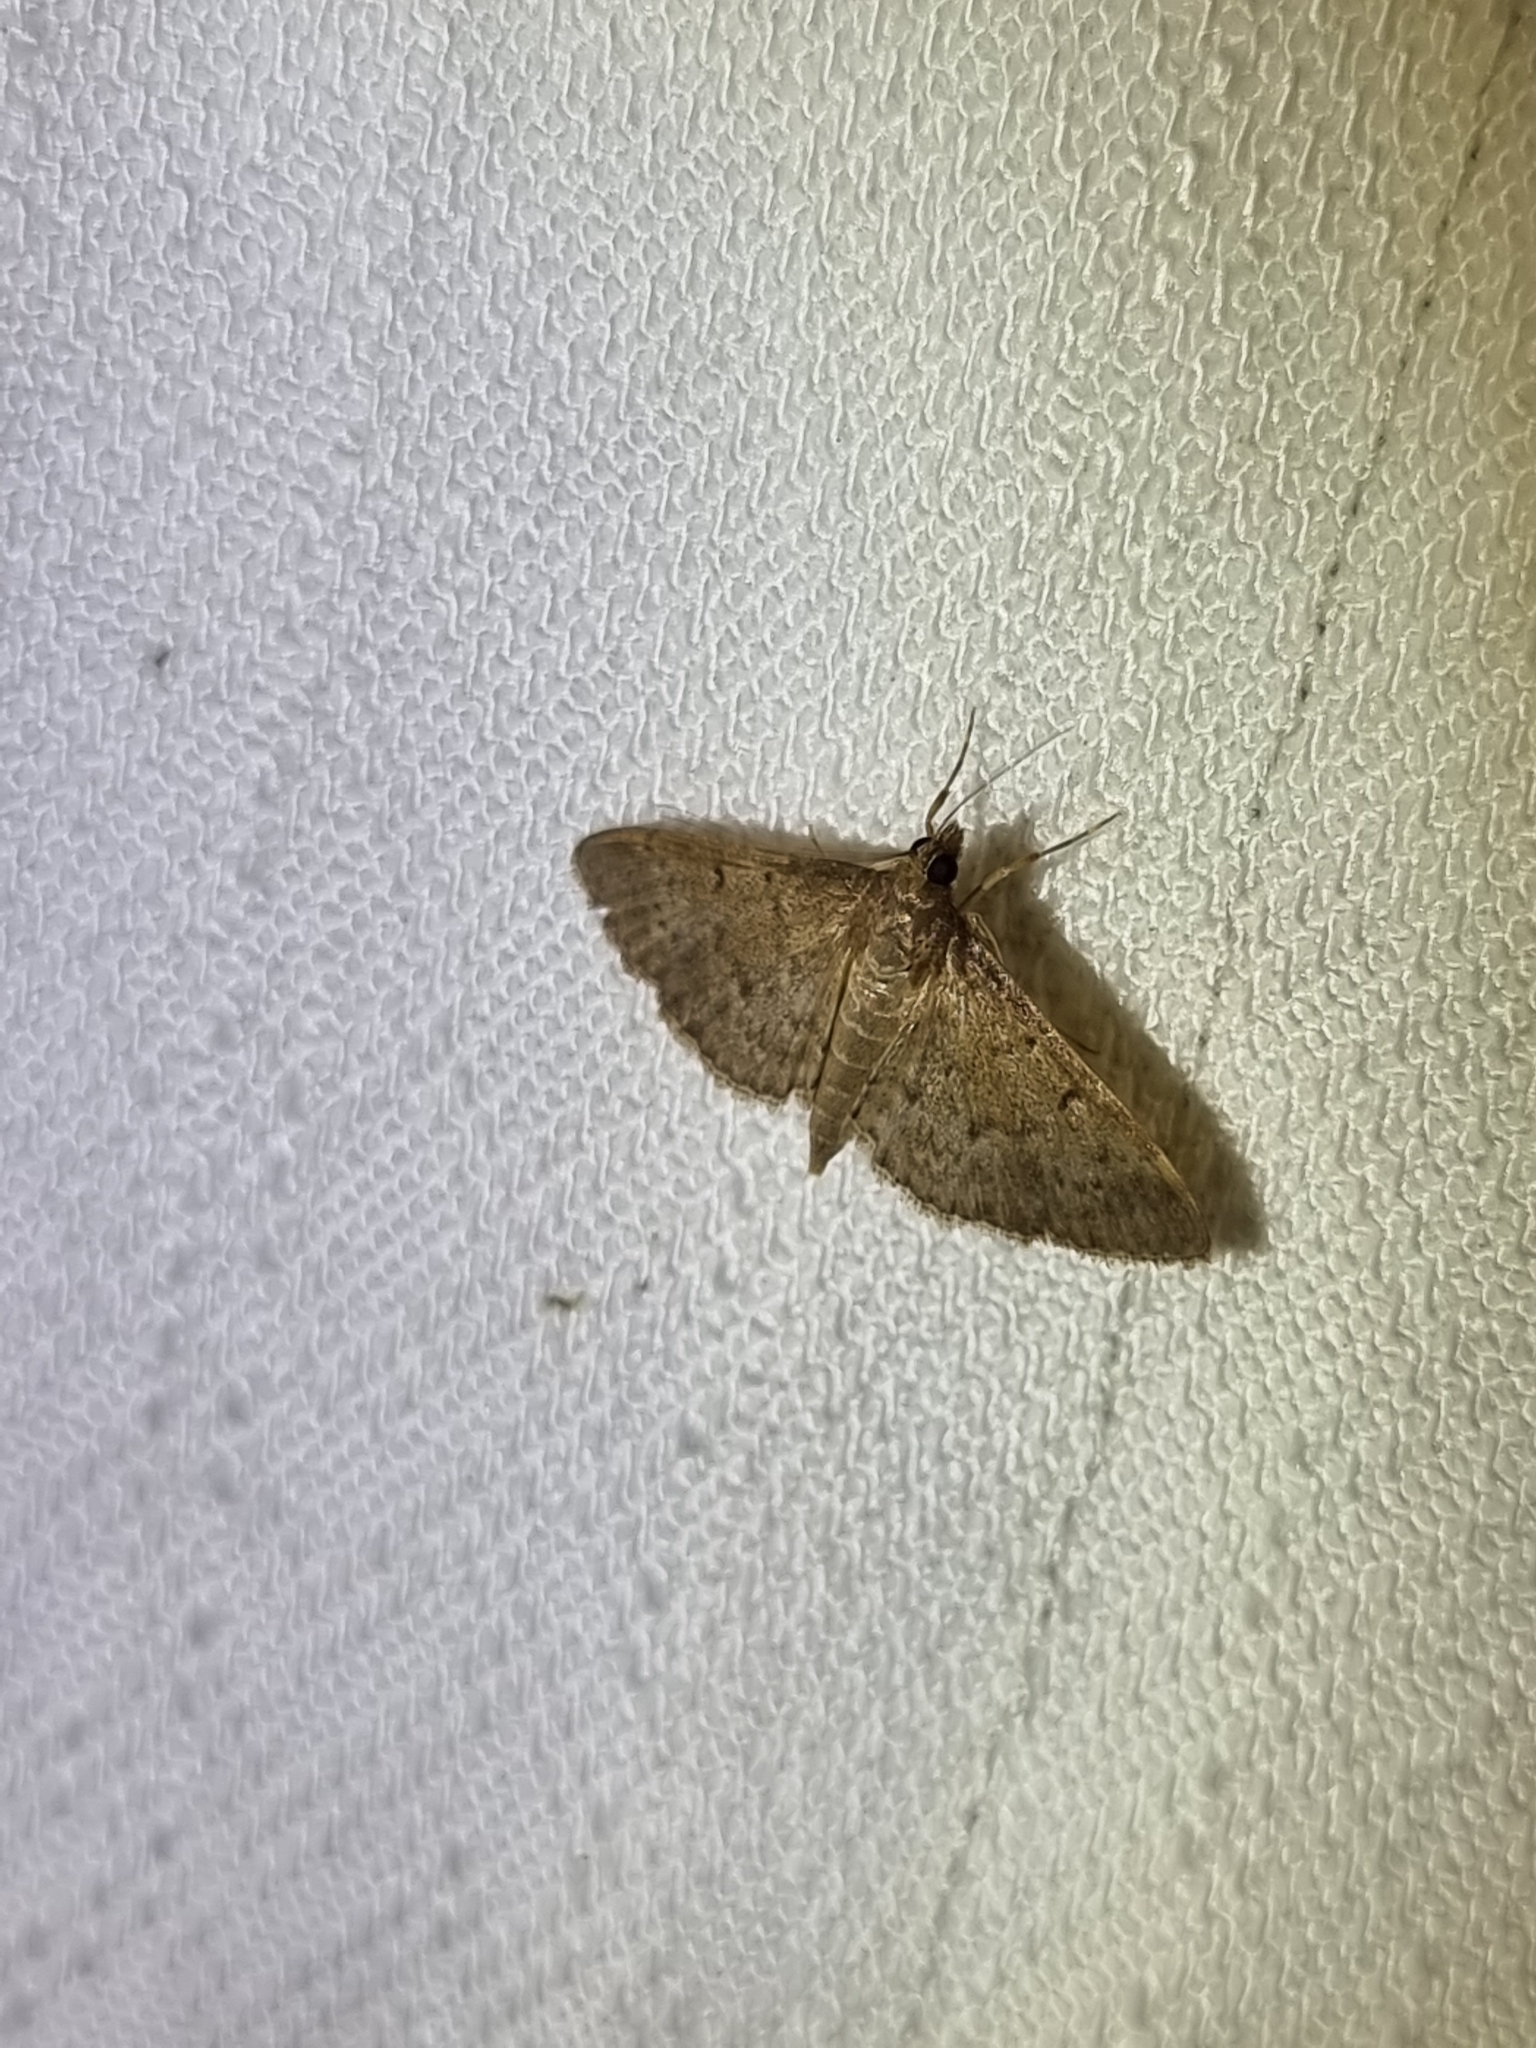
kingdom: Animalia
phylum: Arthropoda
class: Insecta
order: Lepidoptera
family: Crambidae
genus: Herpetogramma
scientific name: Herpetogramma licarsisalis
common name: Grass webworm
